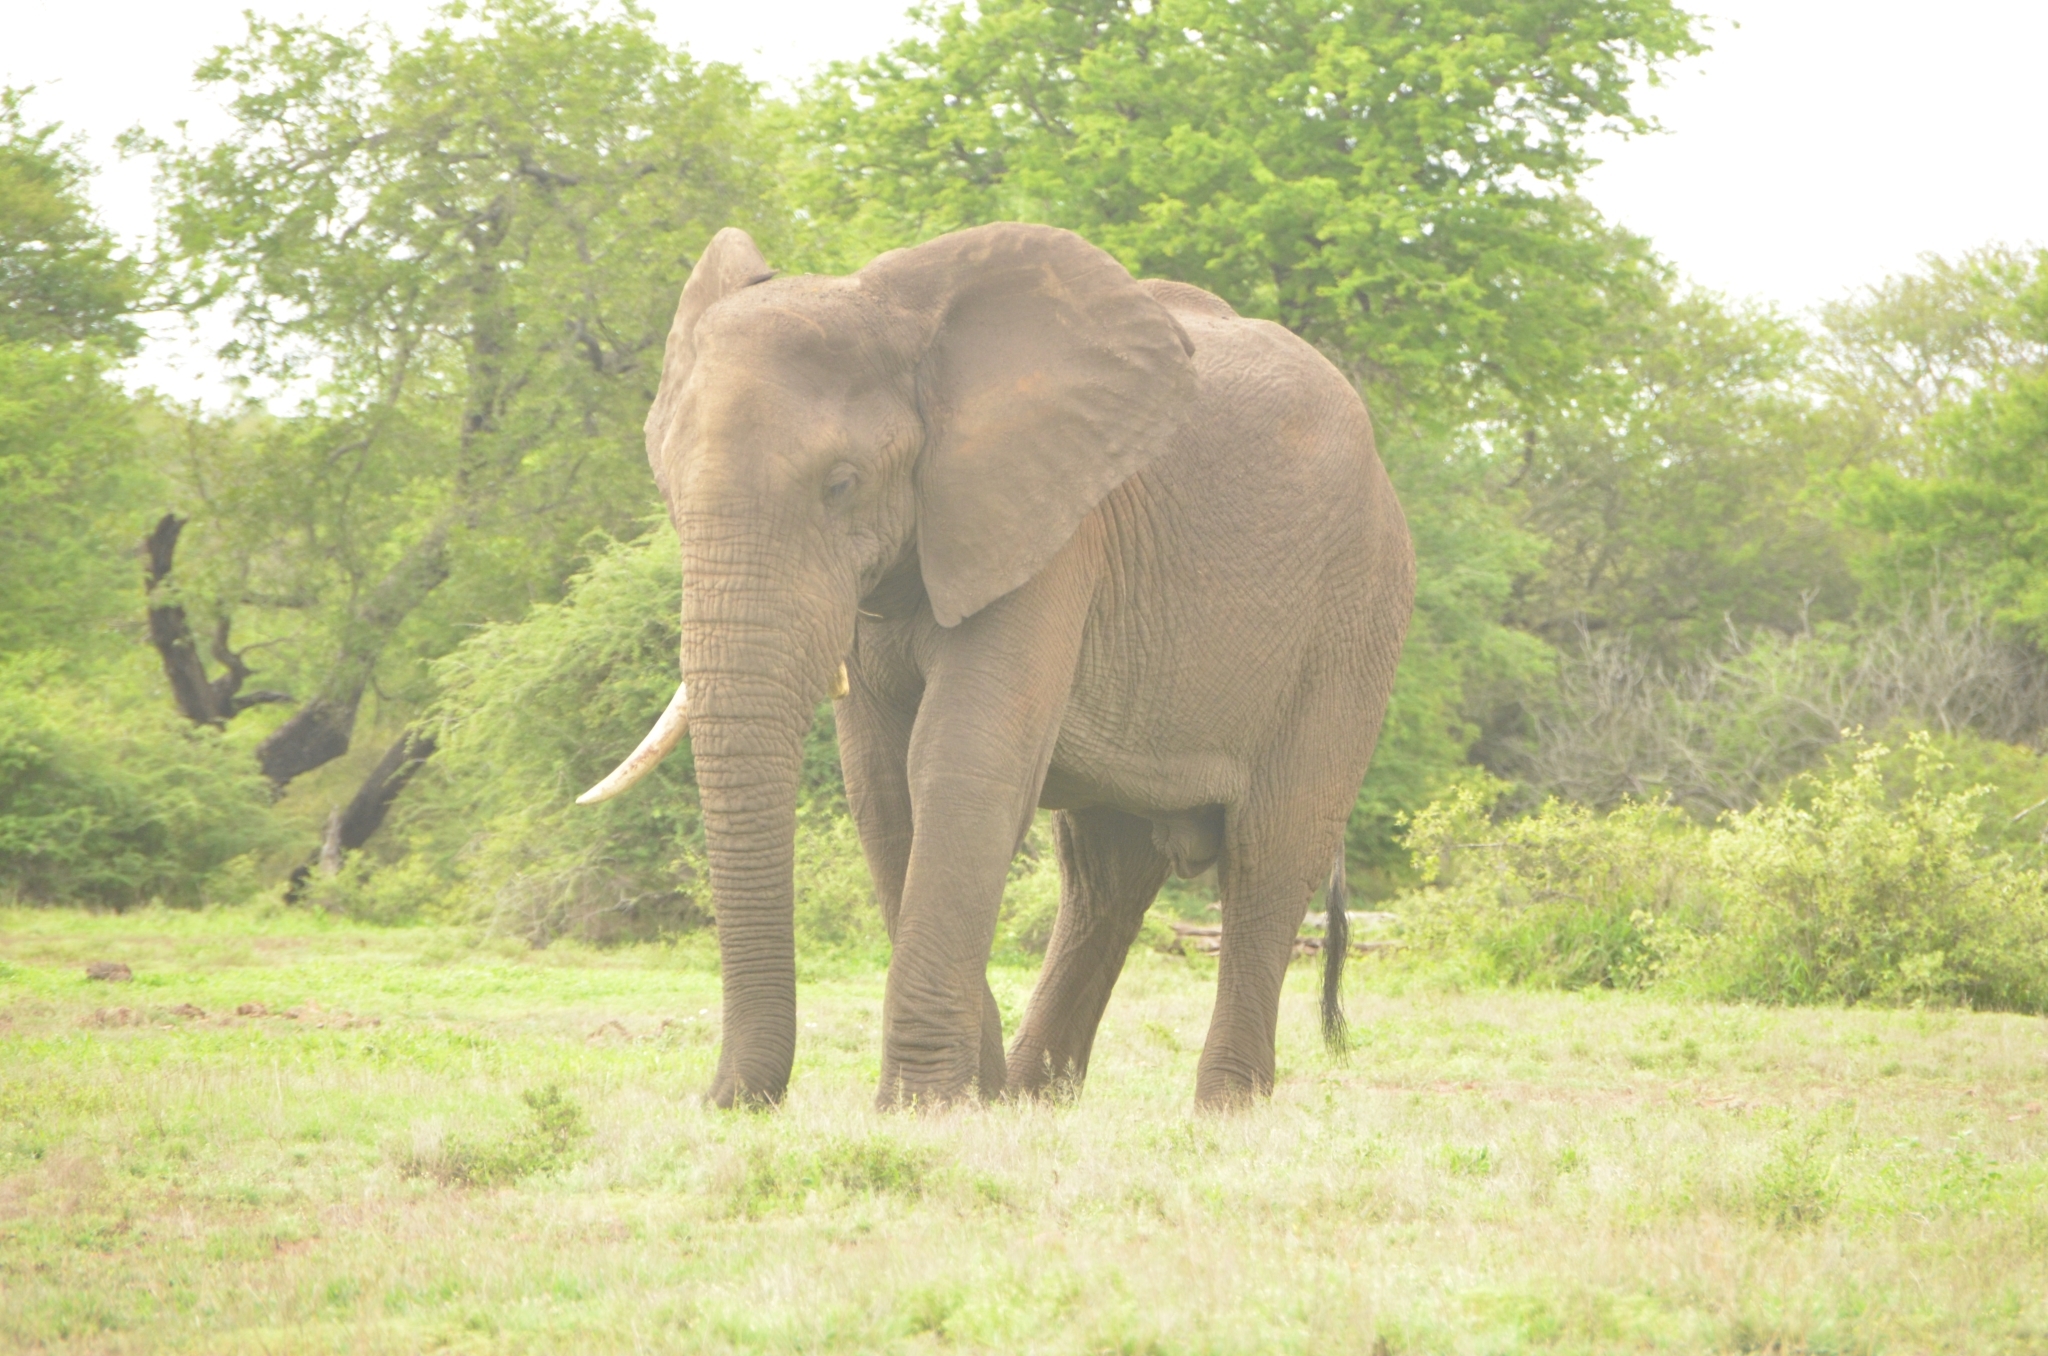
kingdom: Animalia
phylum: Chordata
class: Mammalia
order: Proboscidea
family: Elephantidae
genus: Loxodonta
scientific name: Loxodonta africana
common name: African elephant
